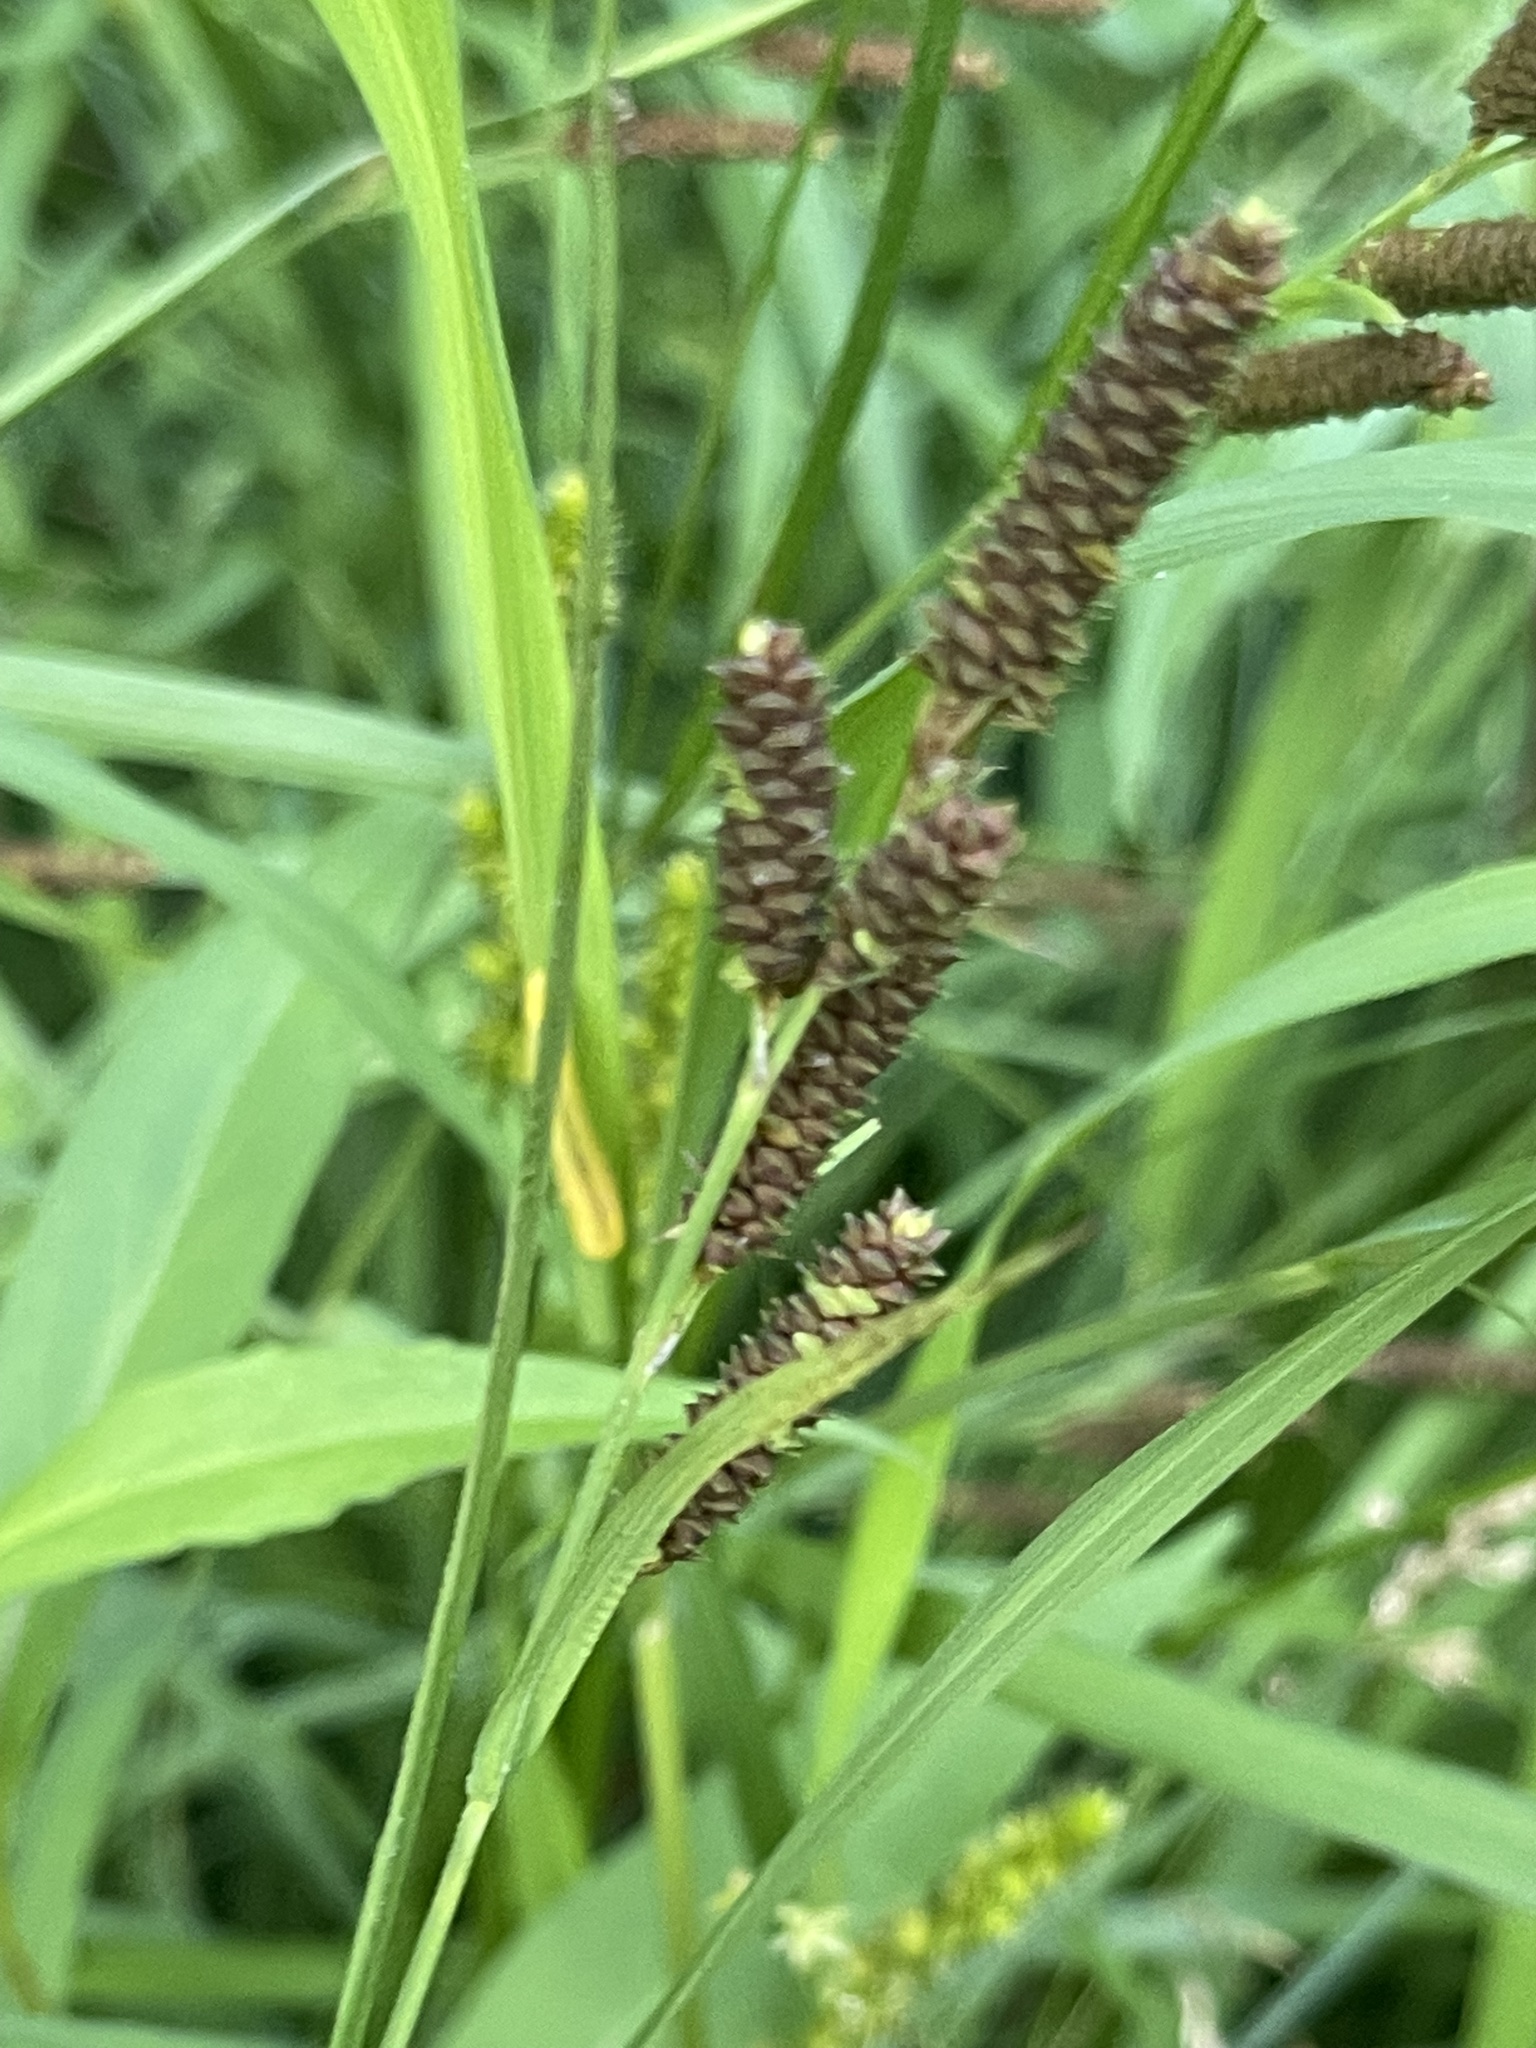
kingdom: Plantae
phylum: Tracheophyta
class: Liliopsida
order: Poales
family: Cyperaceae
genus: Carex
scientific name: Carex shortiana
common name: Short's sedge
